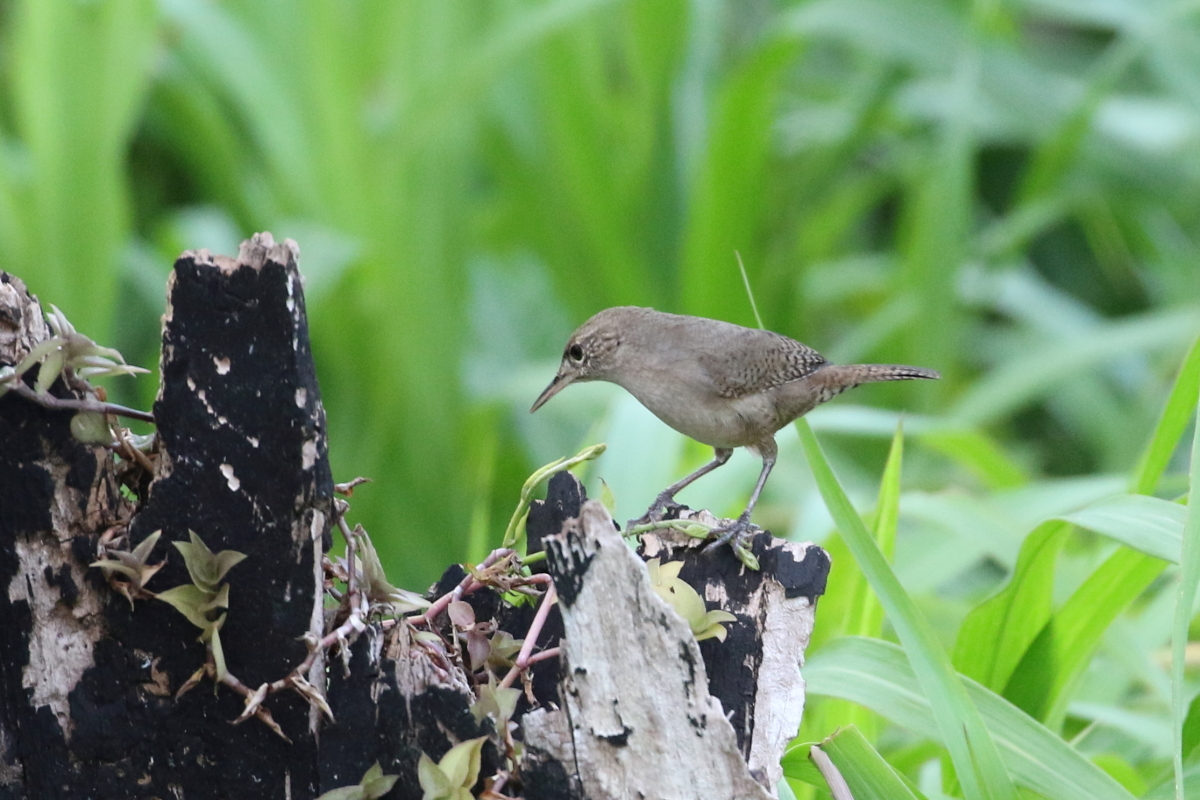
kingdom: Animalia
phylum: Chordata
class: Aves
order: Passeriformes
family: Troglodytidae
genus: Troglodytes
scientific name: Troglodytes aedon
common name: House wren
